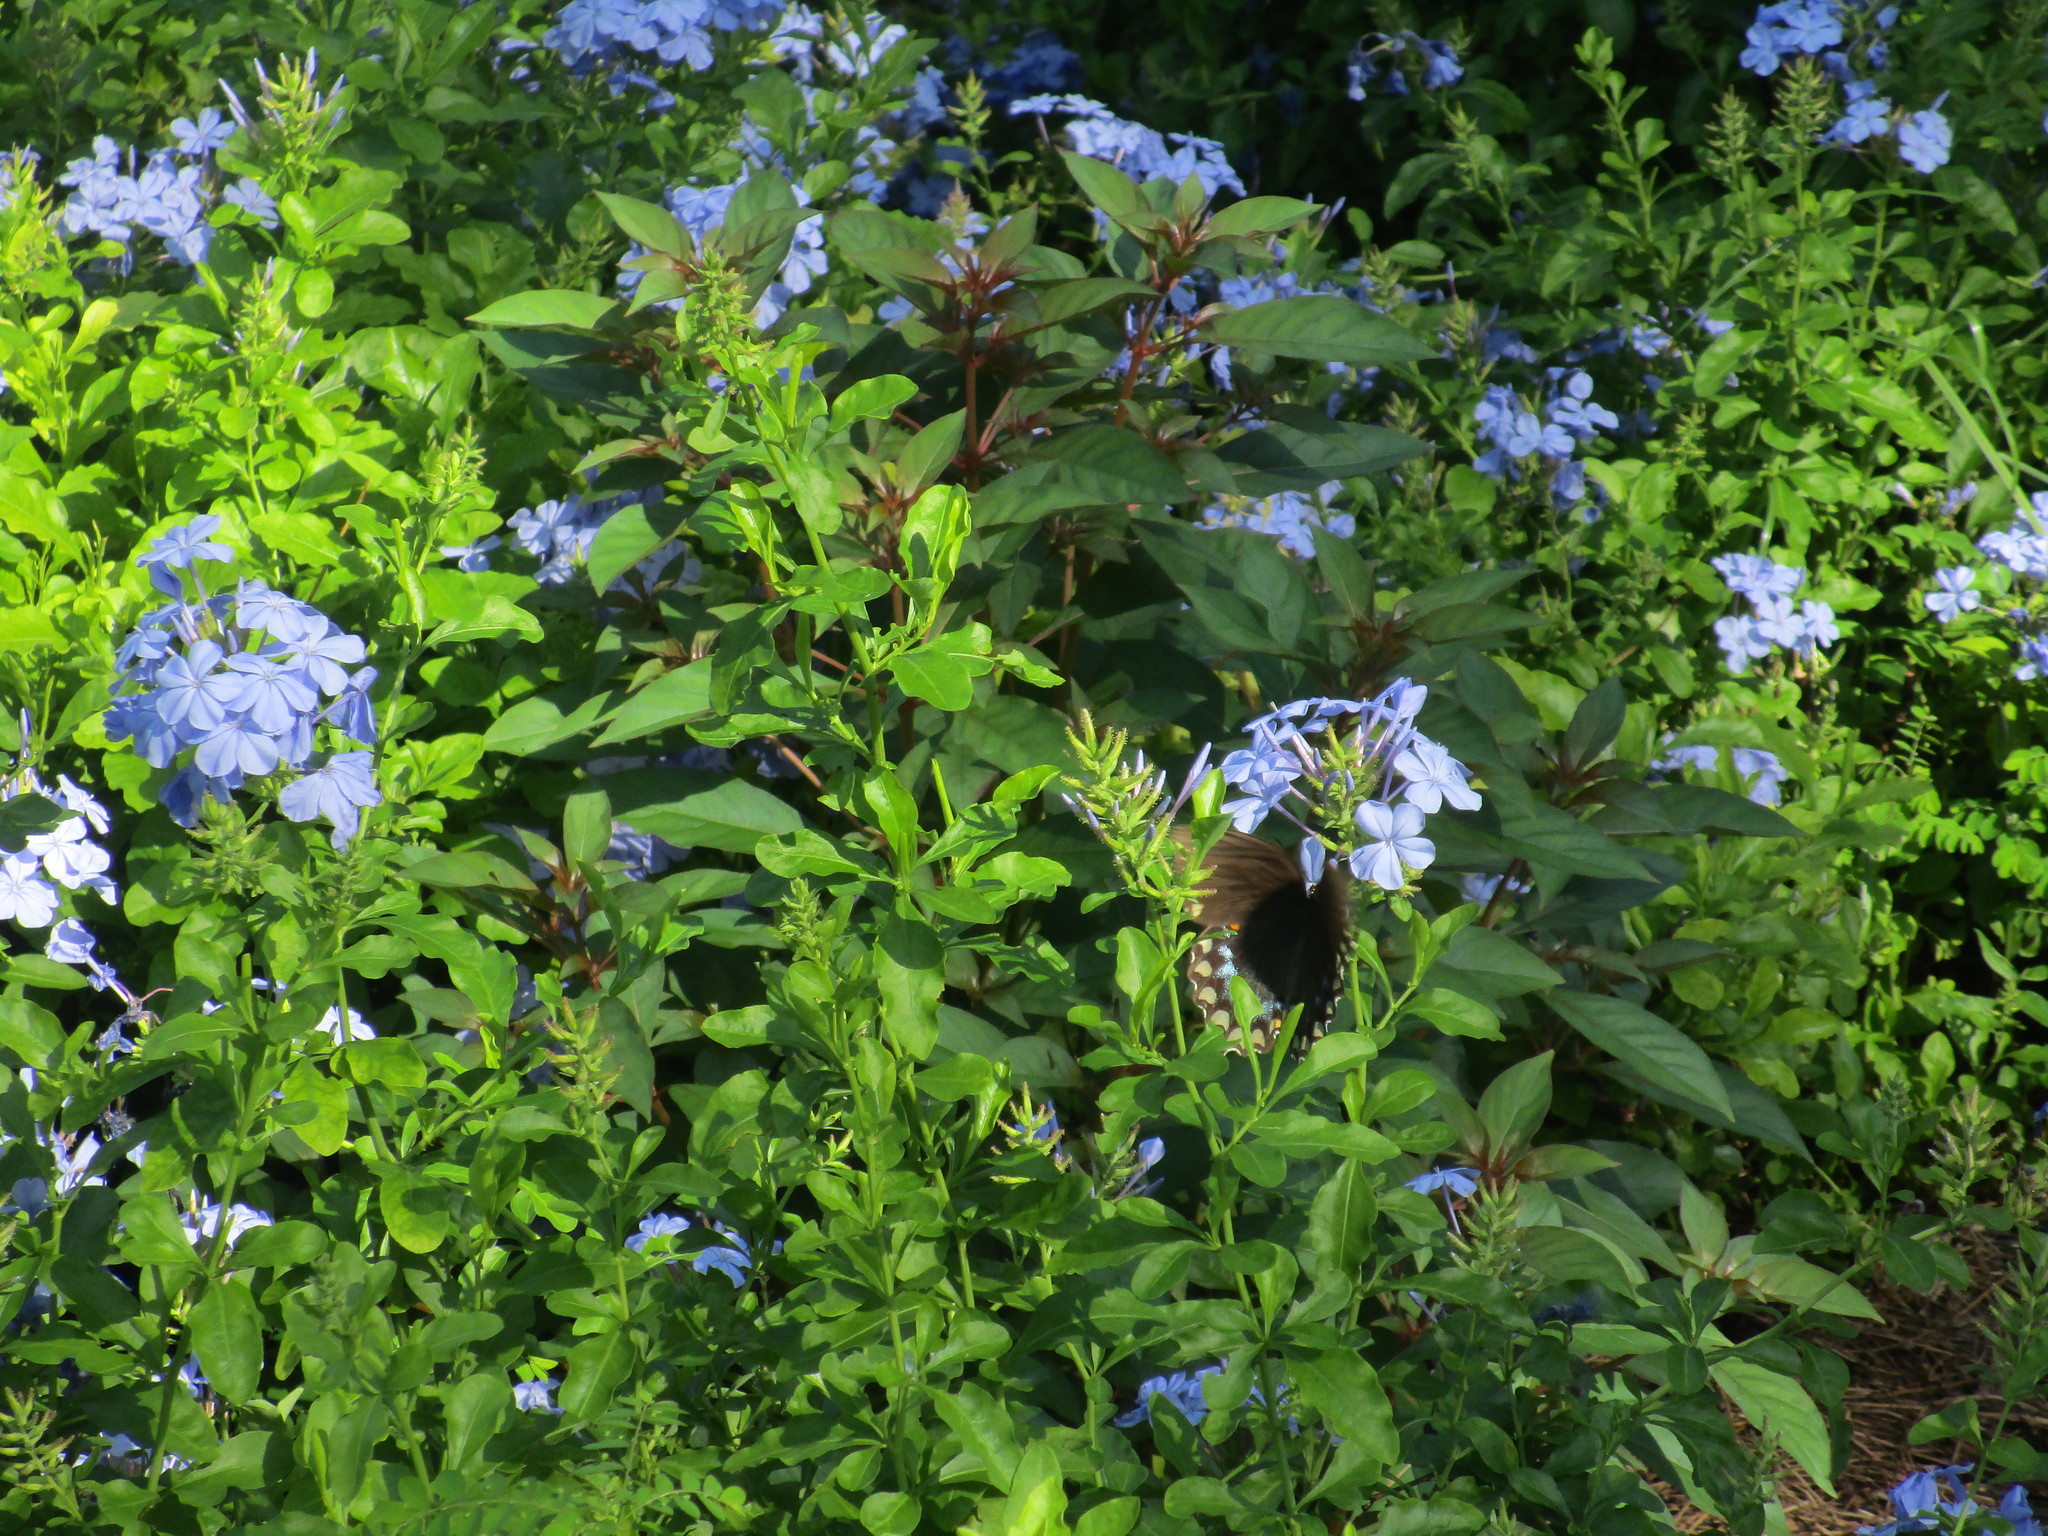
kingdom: Animalia
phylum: Arthropoda
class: Insecta
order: Lepidoptera
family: Papilionidae
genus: Papilio
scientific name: Papilio troilus
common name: Spicebush swallowtail
